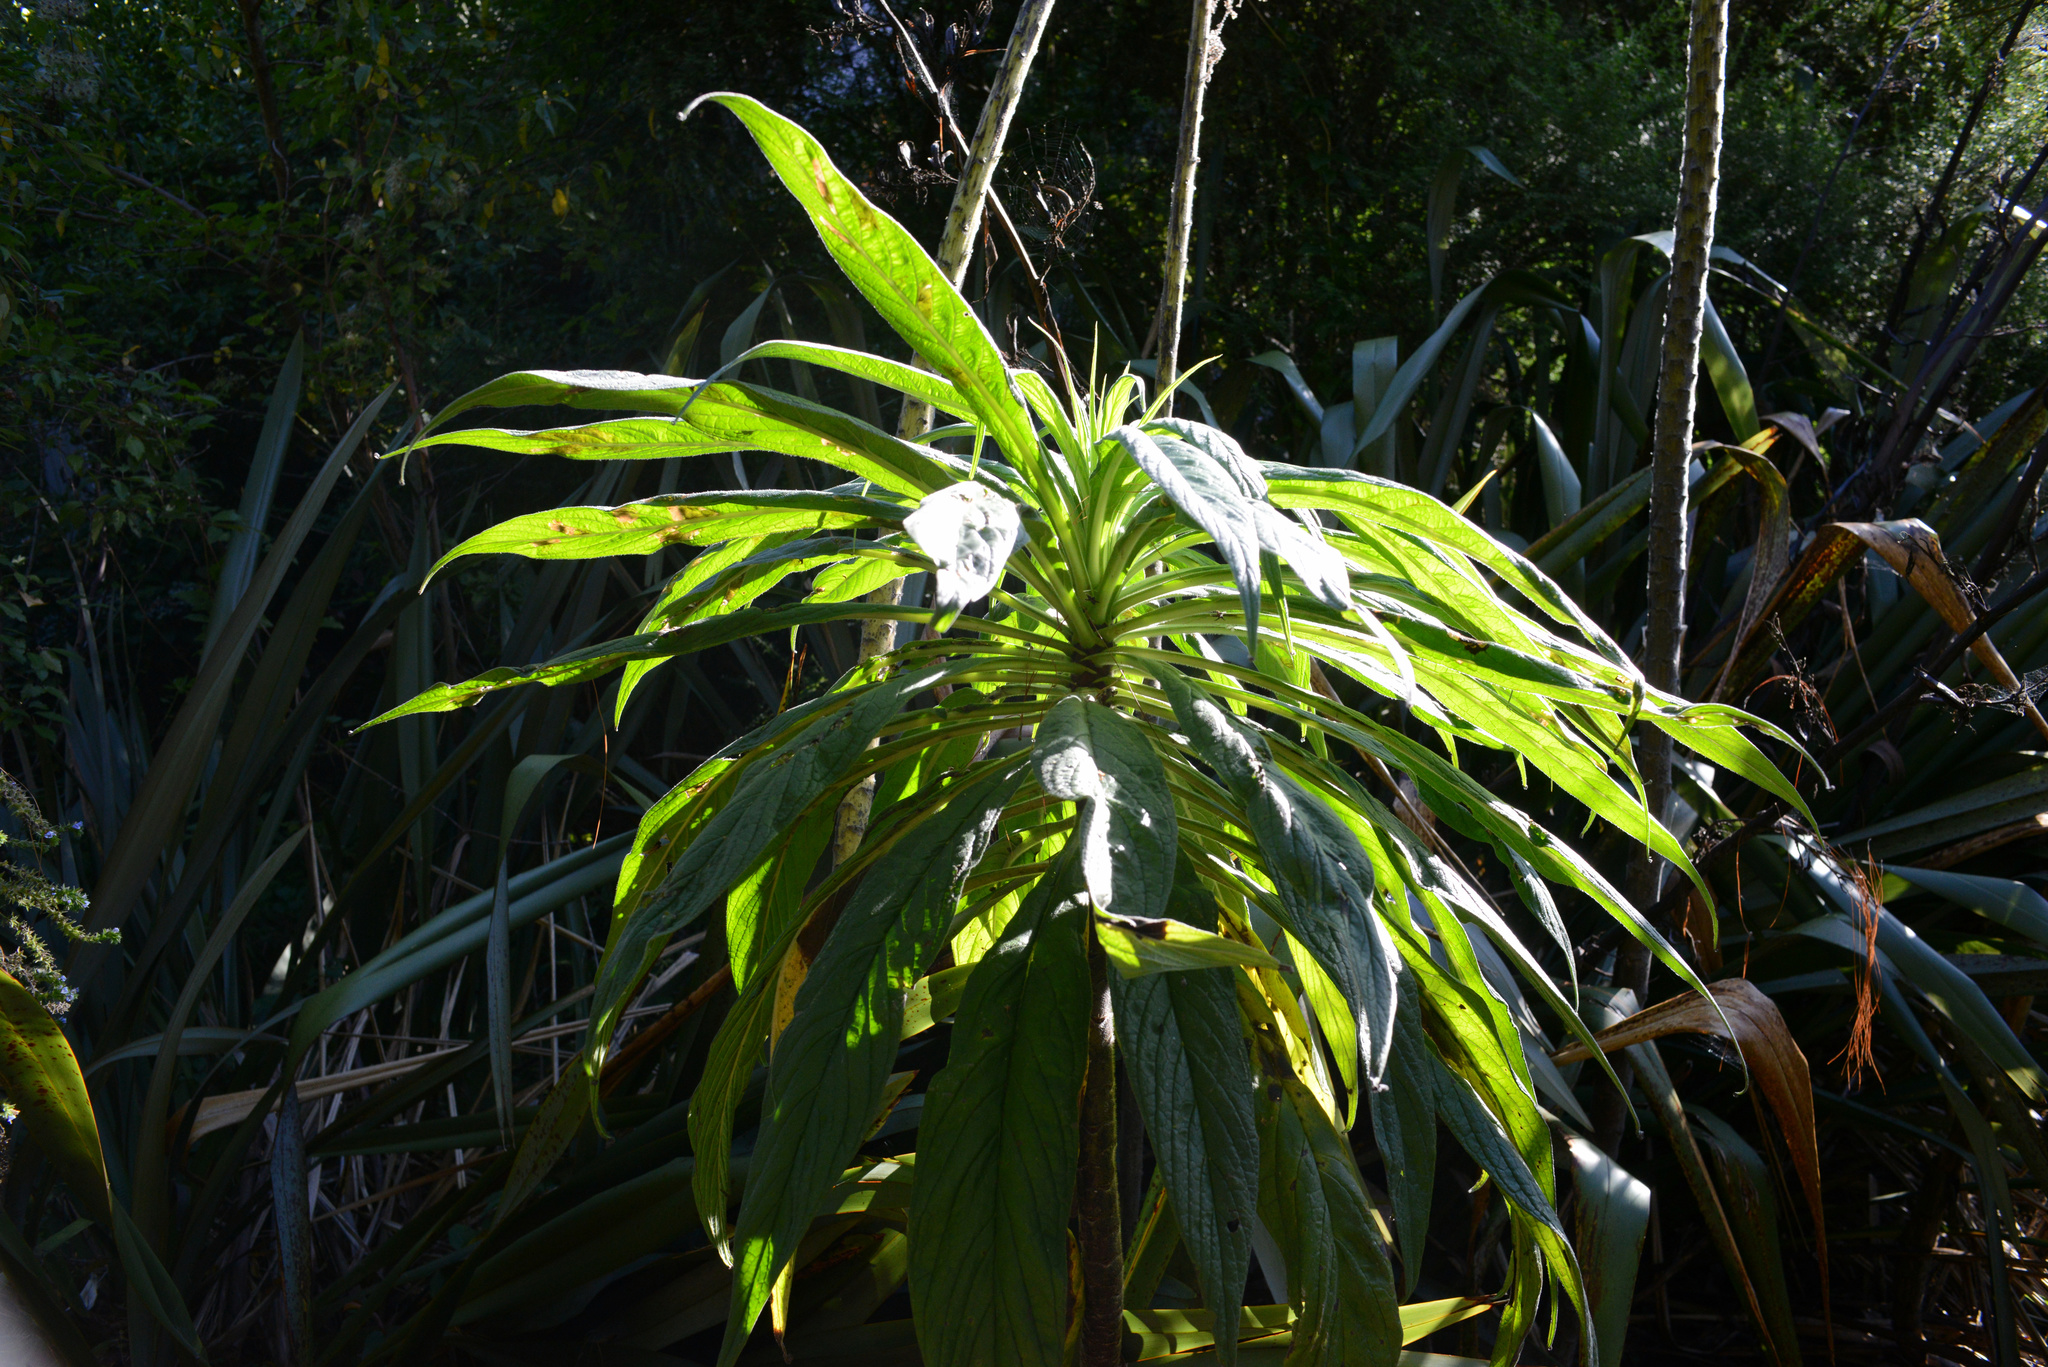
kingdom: Plantae
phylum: Tracheophyta
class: Magnoliopsida
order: Boraginales
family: Boraginaceae
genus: Echium
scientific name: Echium pininana
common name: Giant viper's-bugloss
